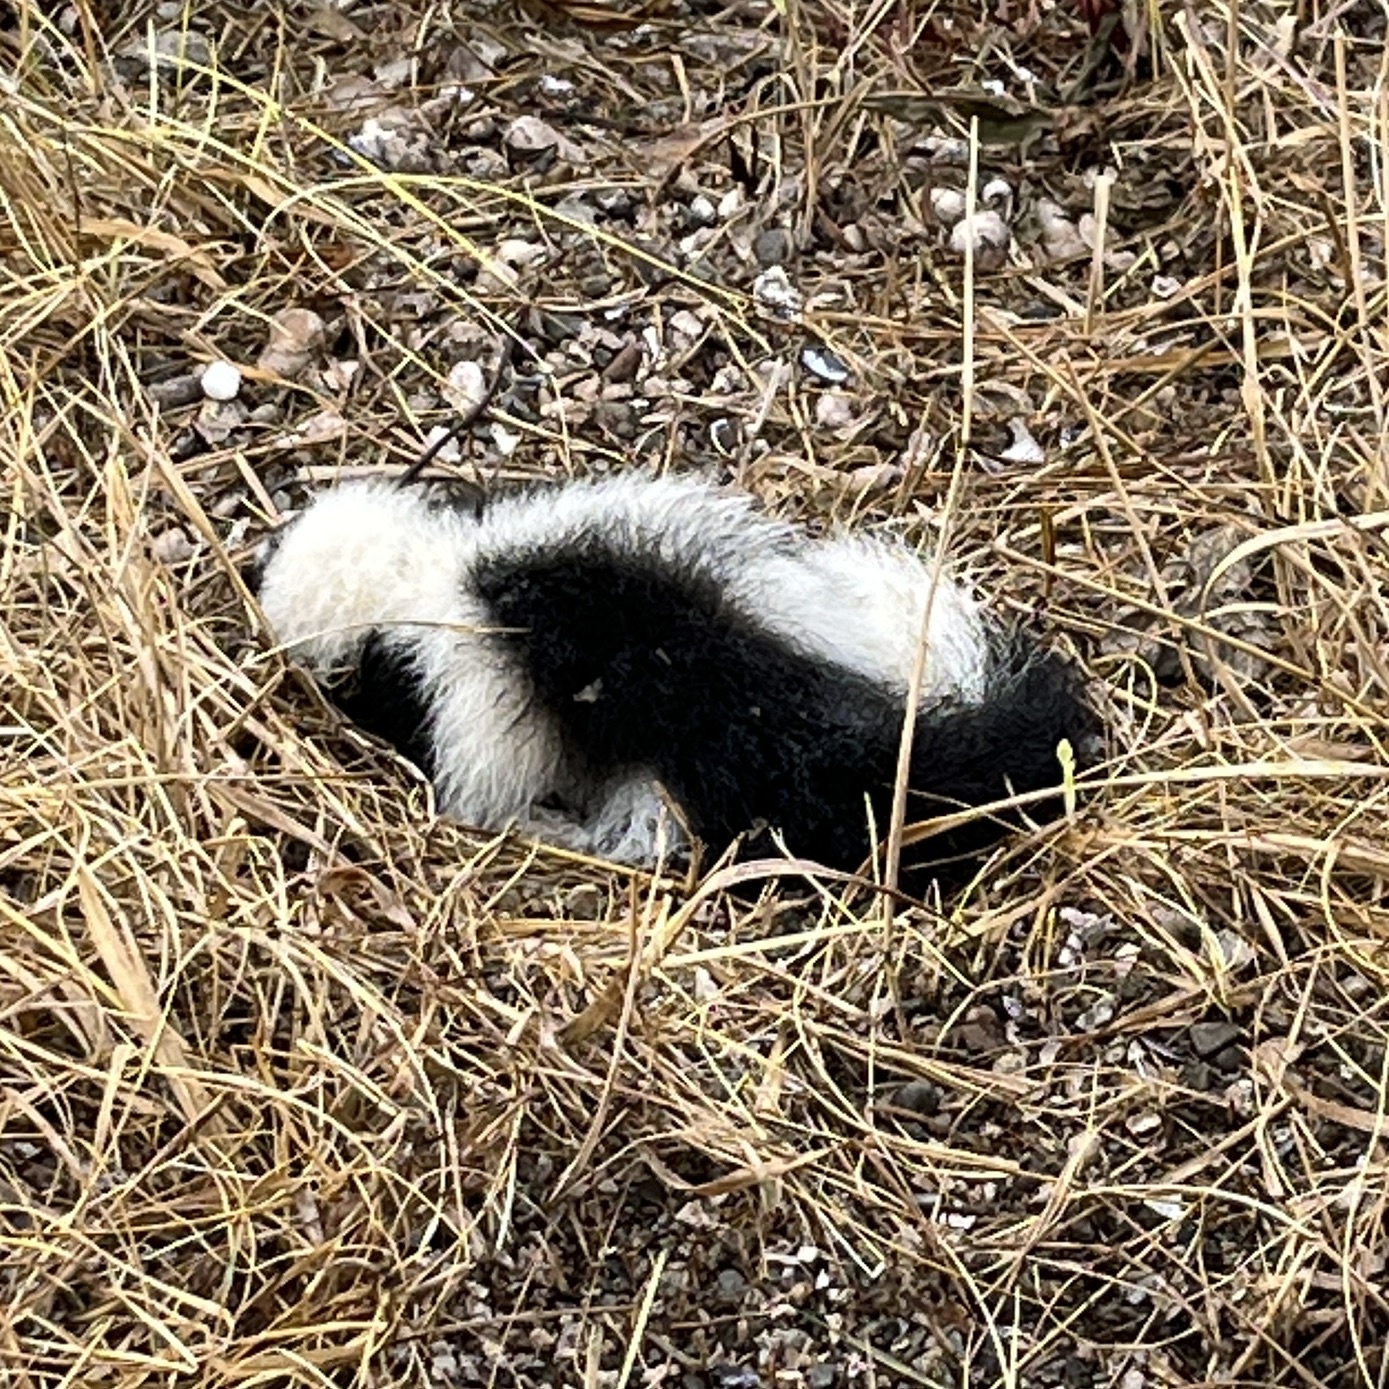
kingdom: Animalia
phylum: Chordata
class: Mammalia
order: Carnivora
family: Mephitidae
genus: Mephitis
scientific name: Mephitis mephitis
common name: Striped skunk
